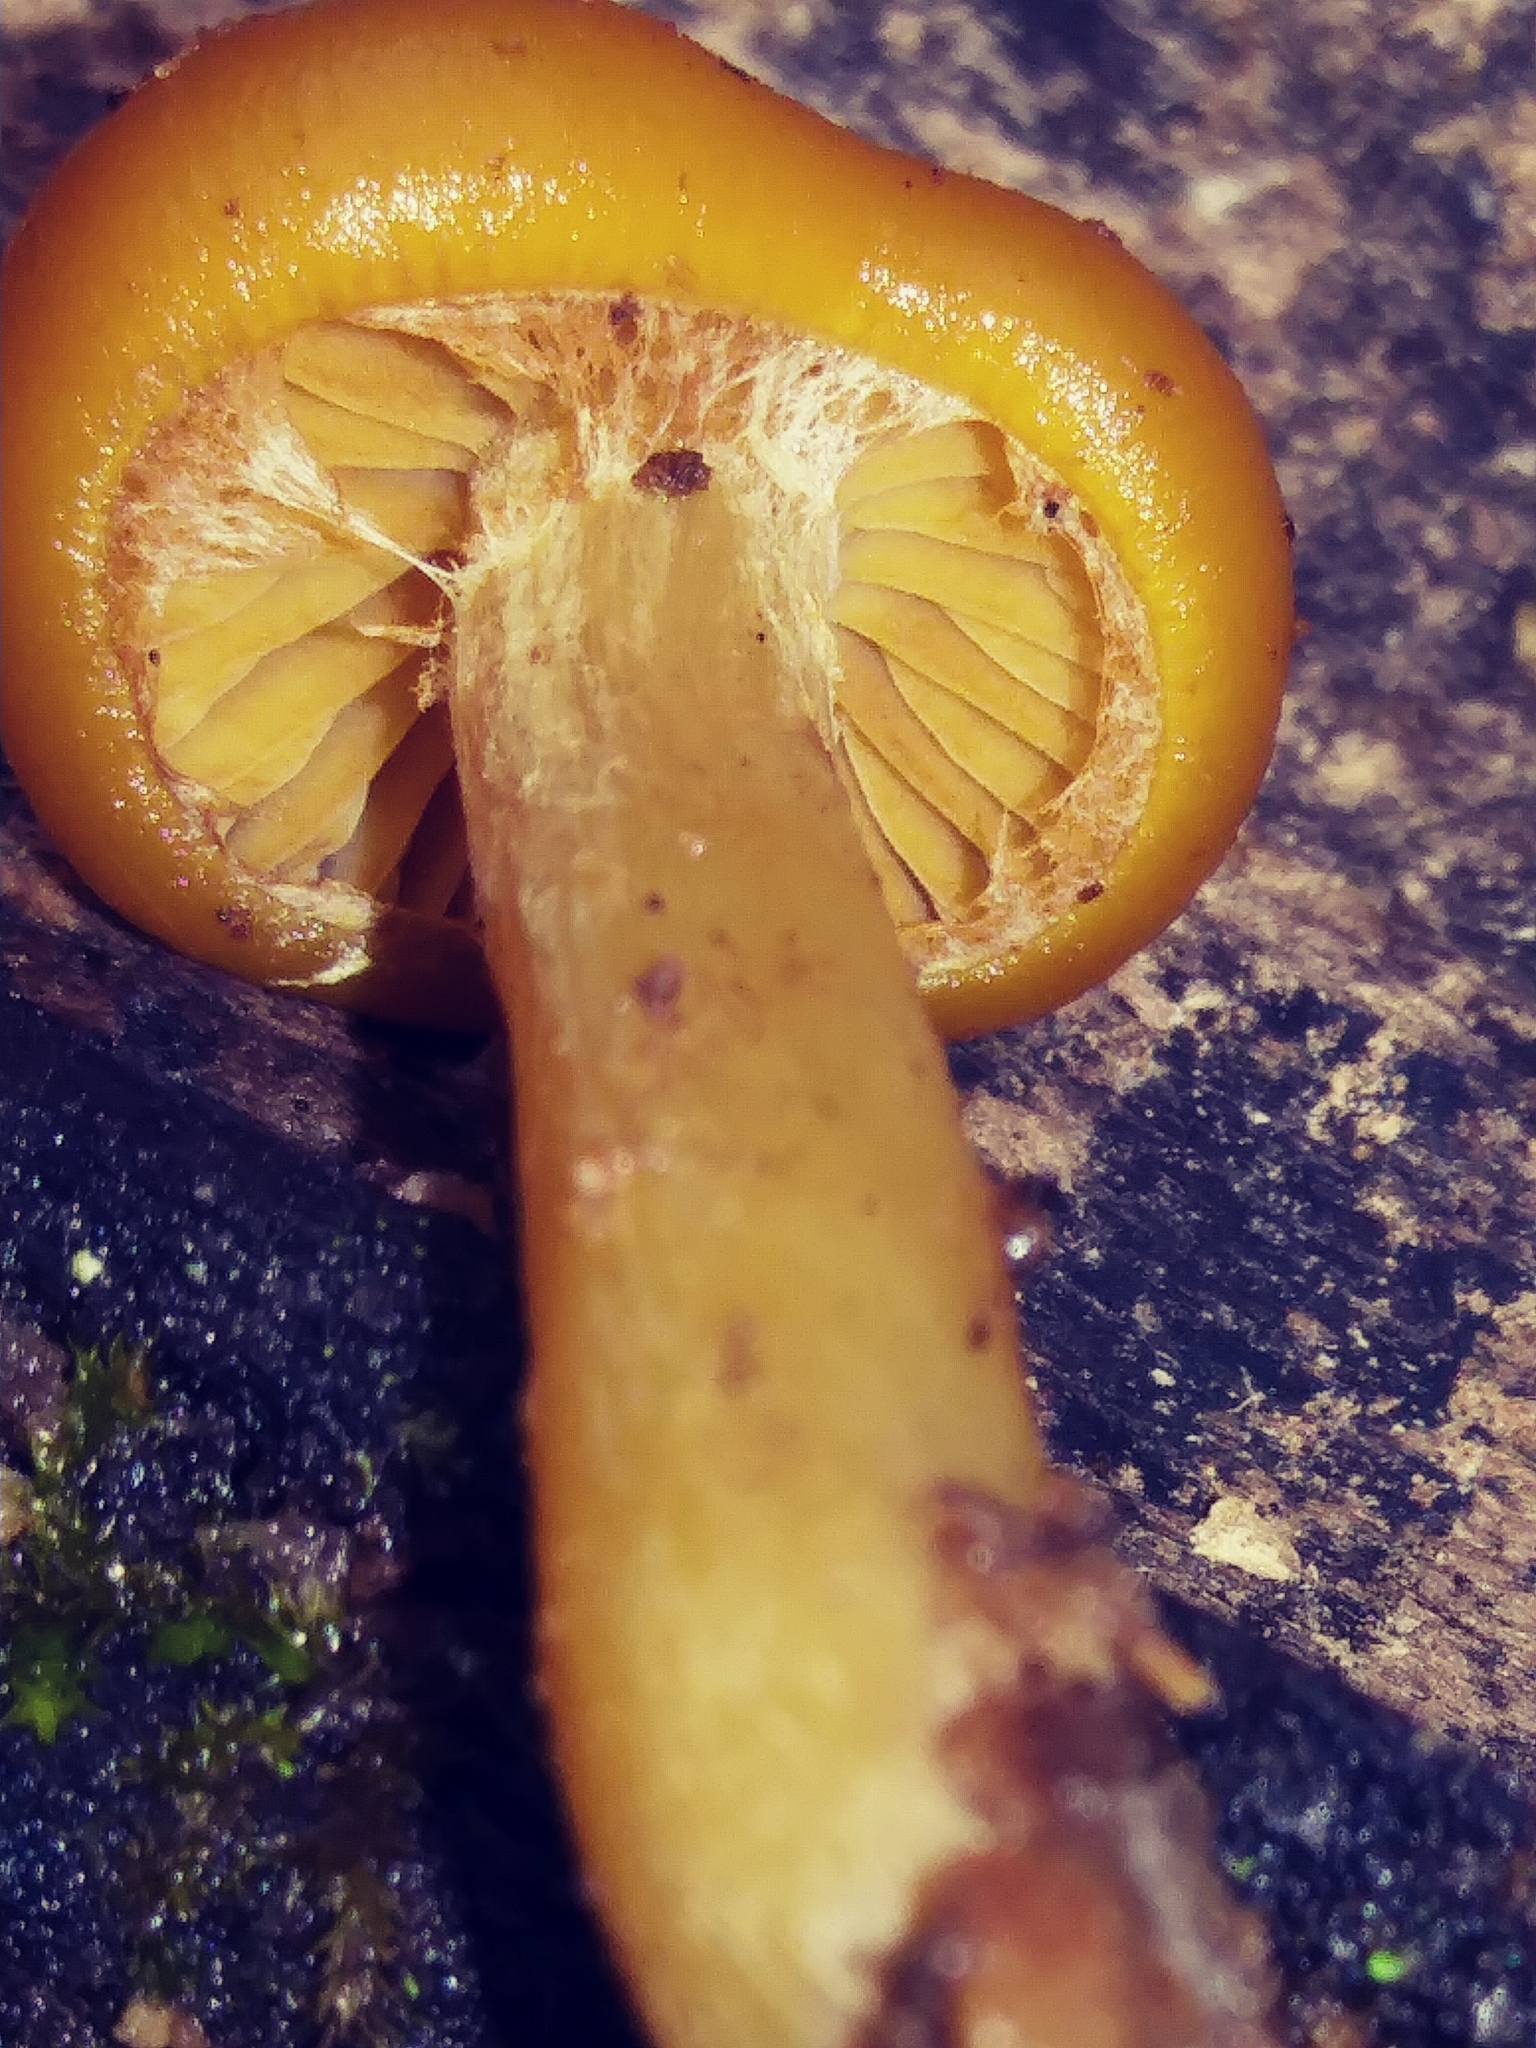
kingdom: Fungi
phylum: Basidiomycota
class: Agaricomycetes
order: Agaricales
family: Hymenogastraceae
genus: Galerina
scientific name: Galerina marginata
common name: Funeral bell
